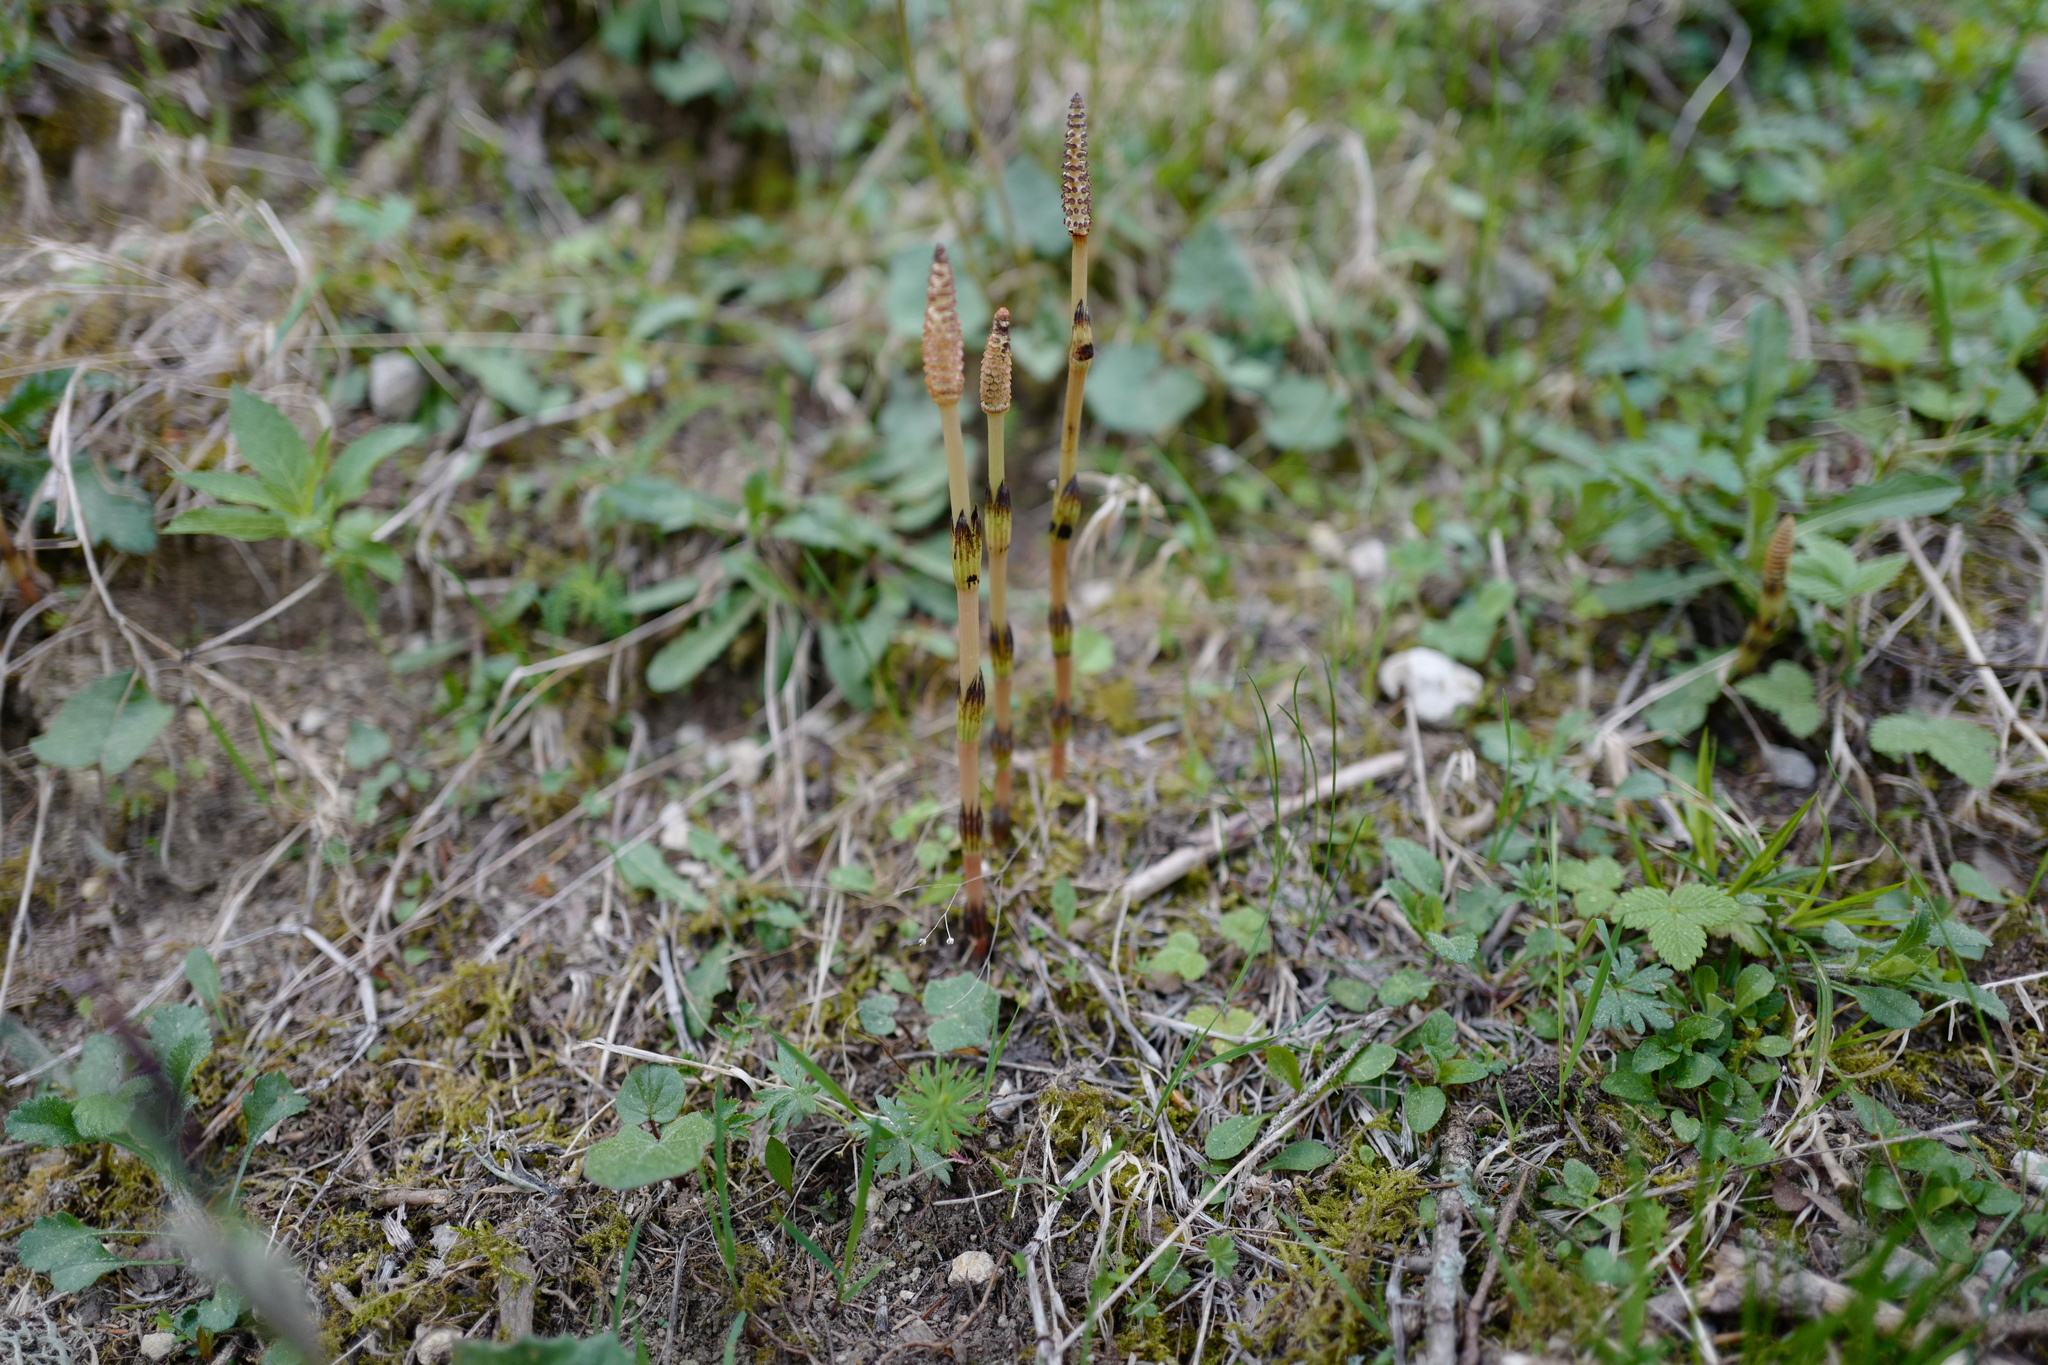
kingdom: Plantae
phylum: Tracheophyta
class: Polypodiopsida
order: Equisetales
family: Equisetaceae
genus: Equisetum
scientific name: Equisetum arvense
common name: Field horsetail
